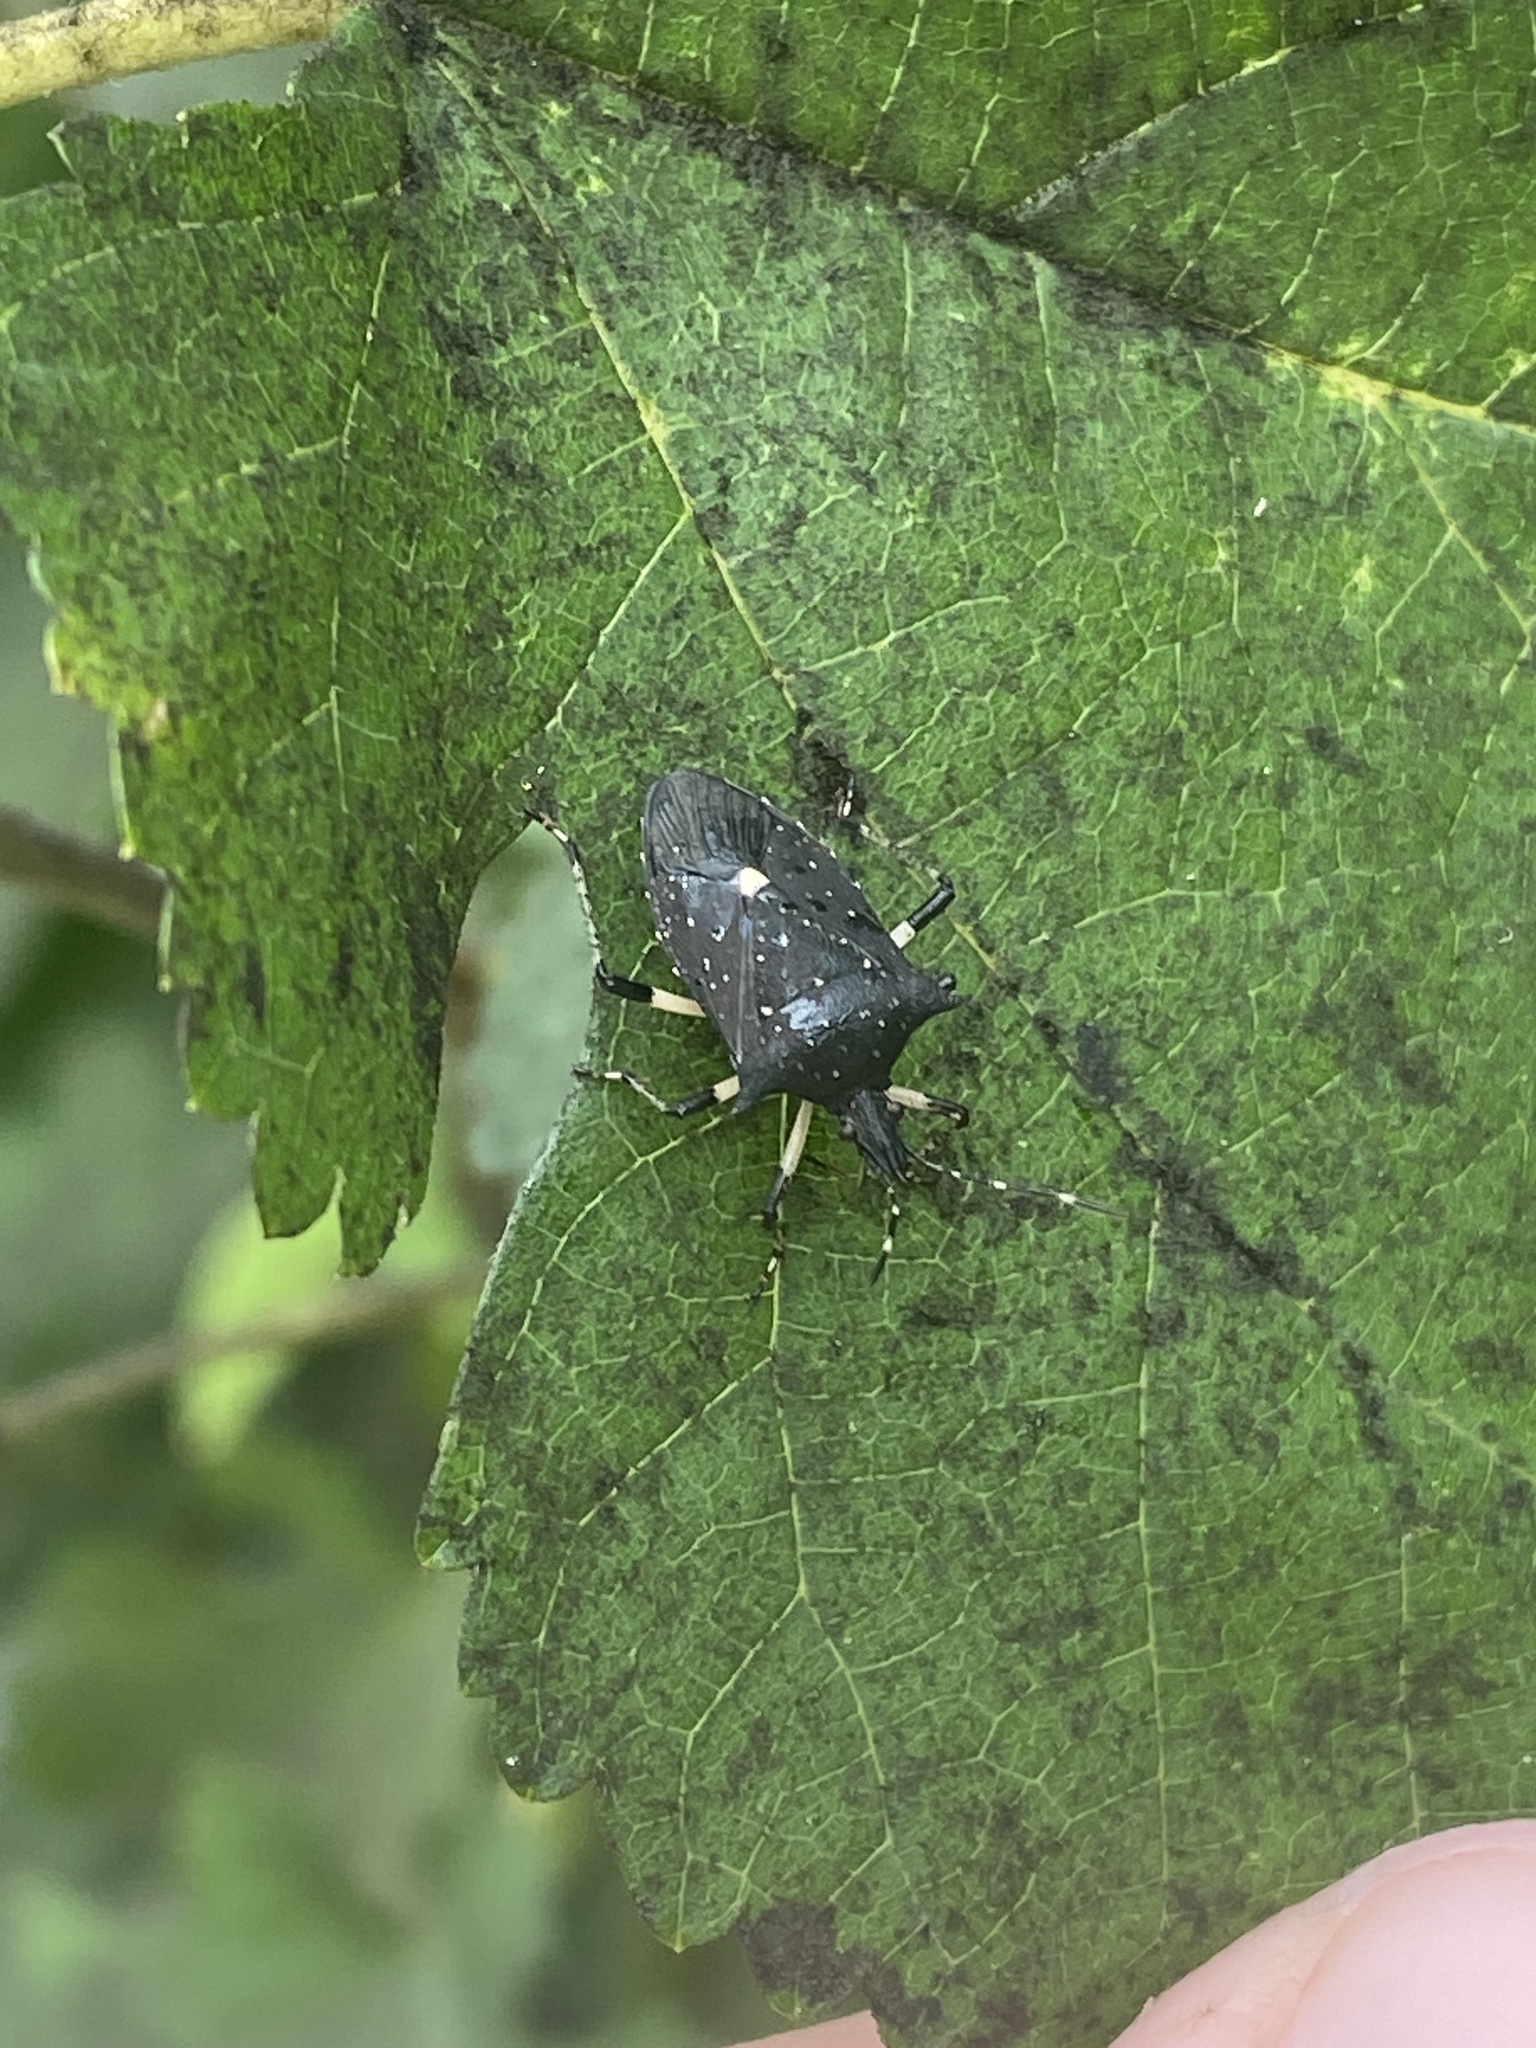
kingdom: Animalia
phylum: Arthropoda
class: Insecta
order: Hemiptera
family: Pentatomidae
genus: Proxys
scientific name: Proxys punctulatus
